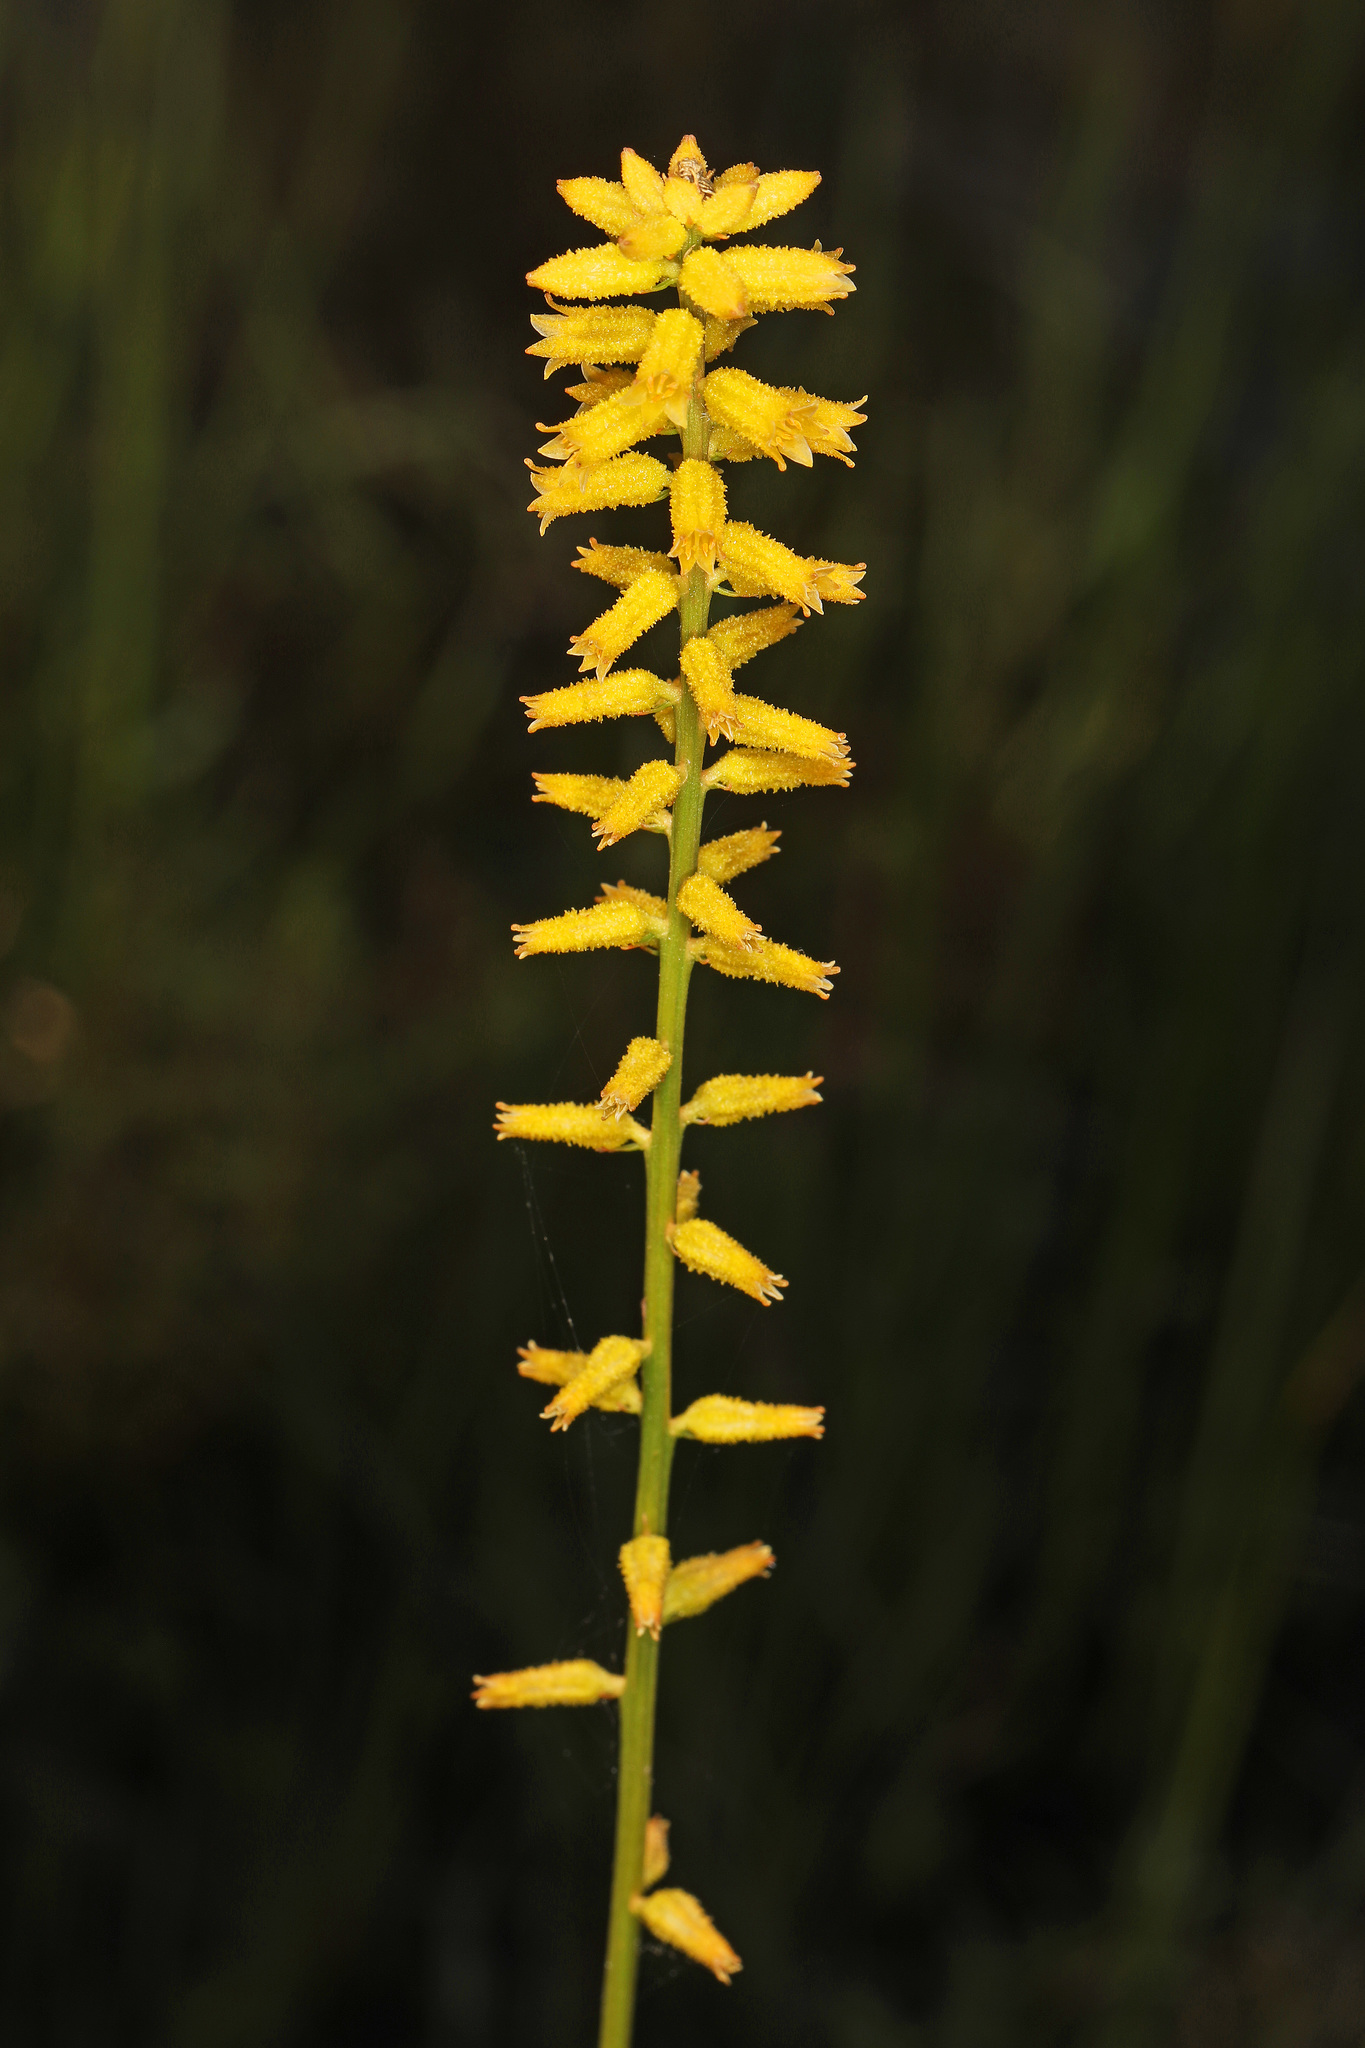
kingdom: Plantae
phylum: Tracheophyta
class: Liliopsida
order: Dioscoreales
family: Nartheciaceae
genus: Aletris
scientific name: Aletris lutea
